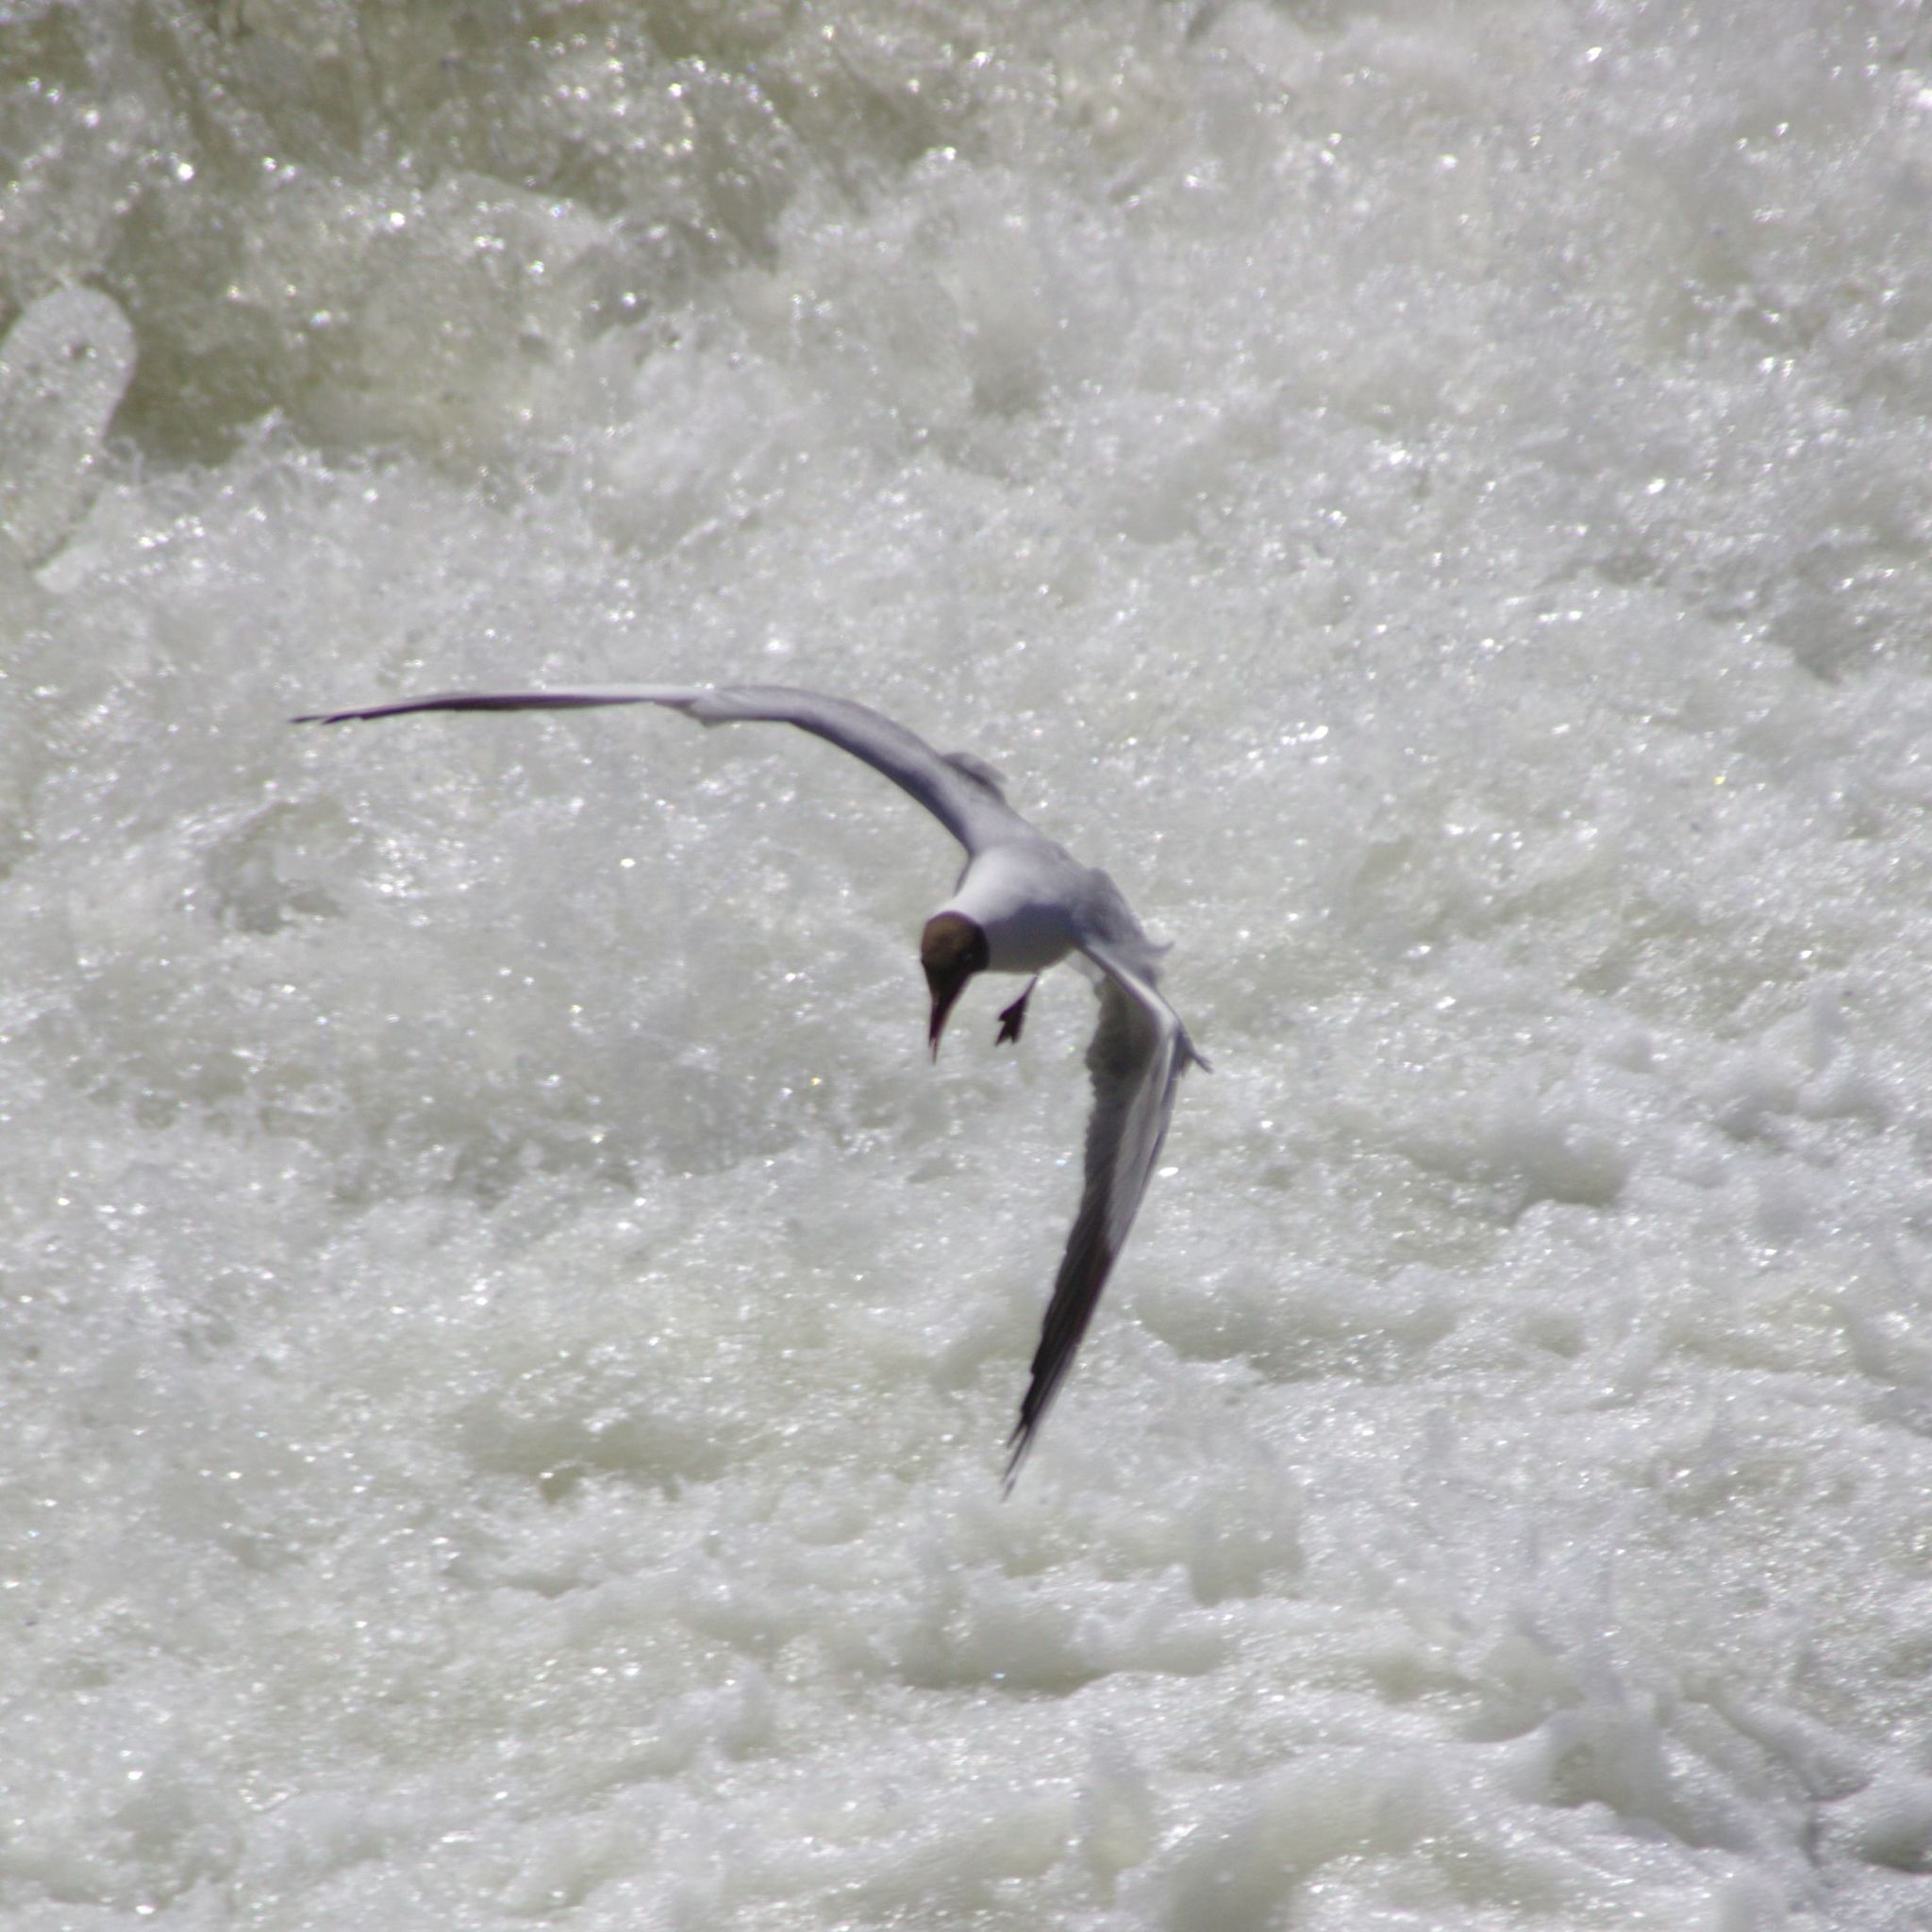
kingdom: Animalia
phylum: Chordata
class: Aves
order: Charadriiformes
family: Laridae
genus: Chroicocephalus
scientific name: Chroicocephalus ridibundus
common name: Black-headed gull
